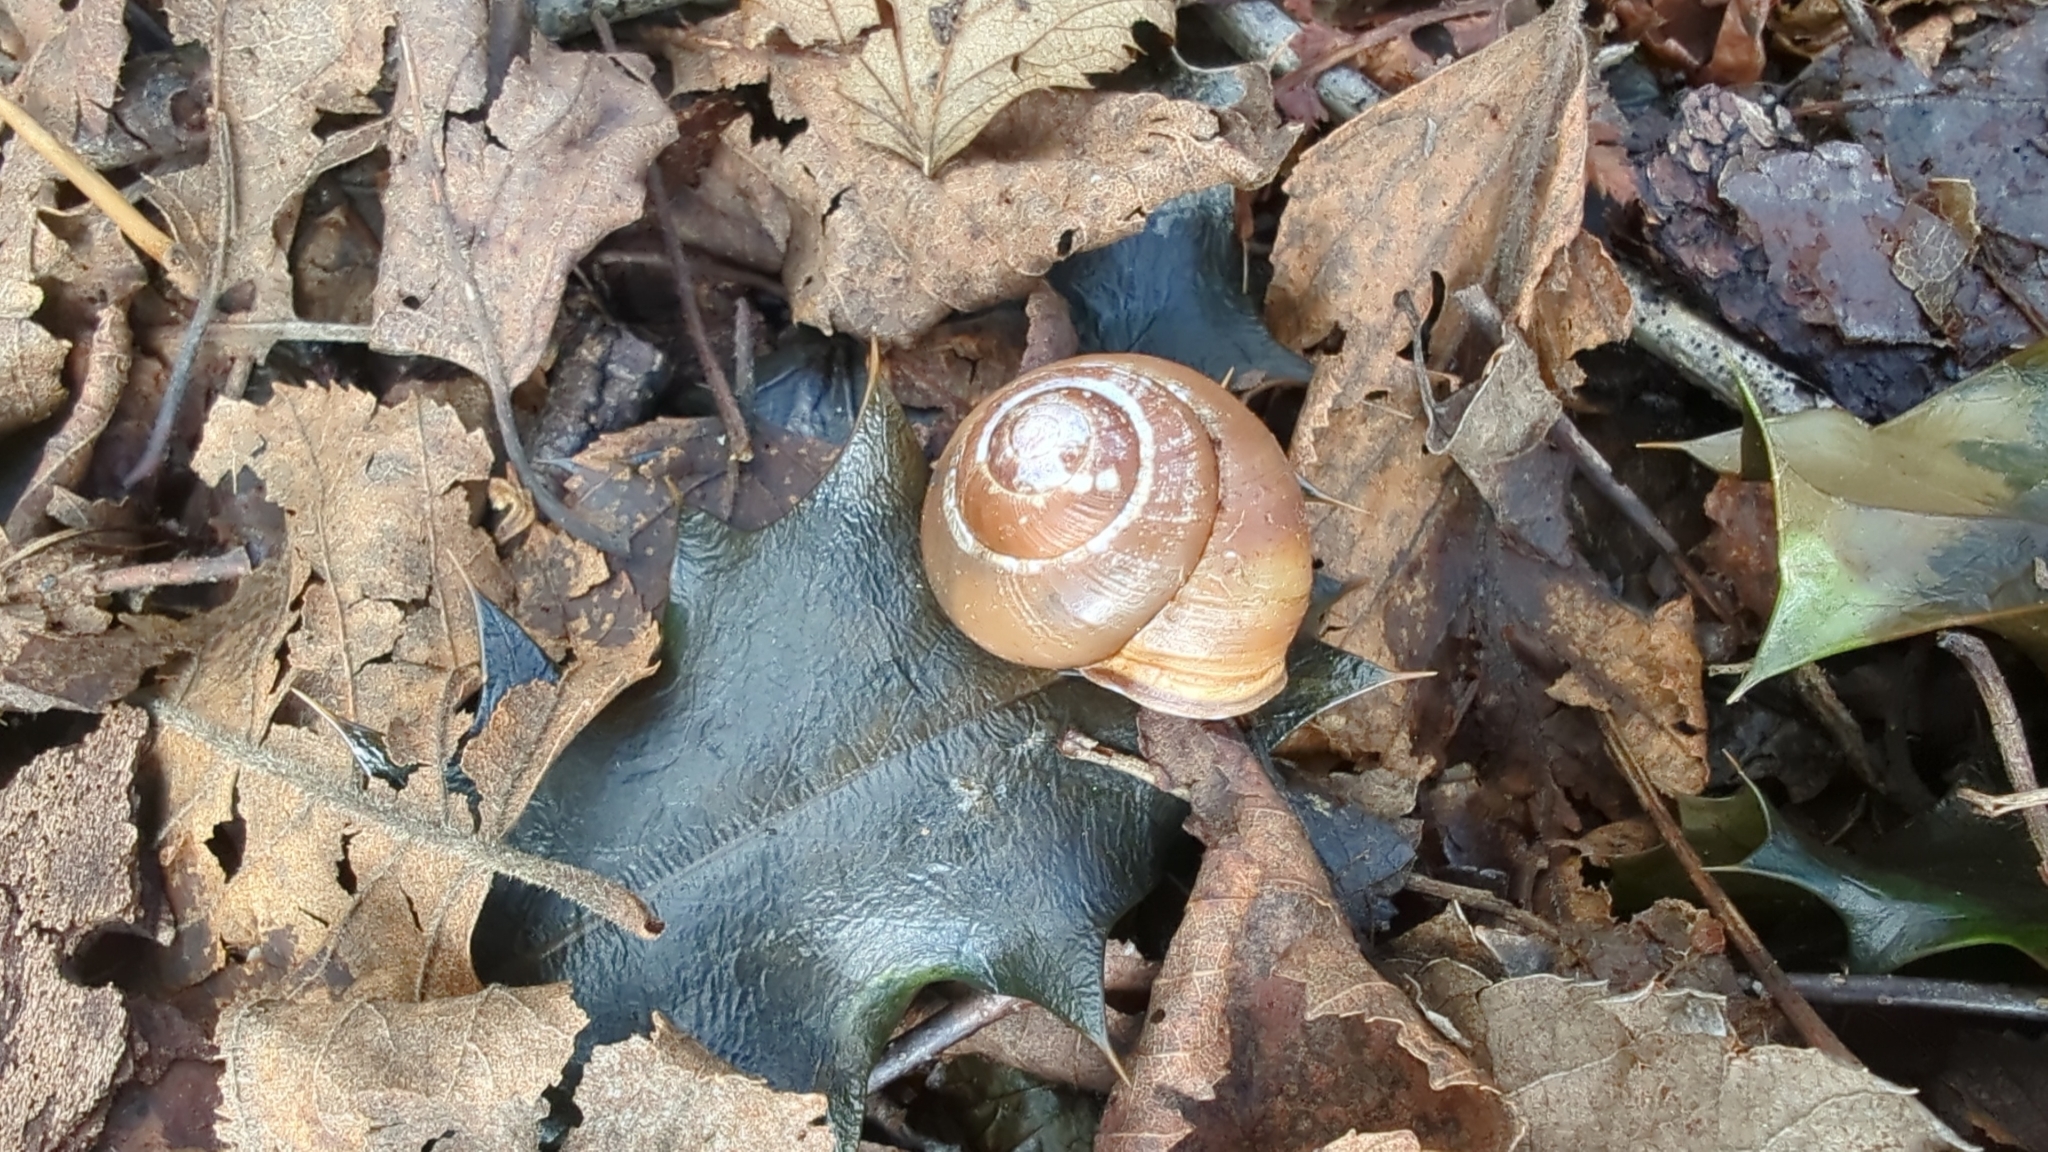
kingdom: Animalia
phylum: Mollusca
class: Gastropoda
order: Stylommatophora
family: Helicidae
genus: Cepaea
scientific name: Cepaea nemoralis
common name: Grovesnail
